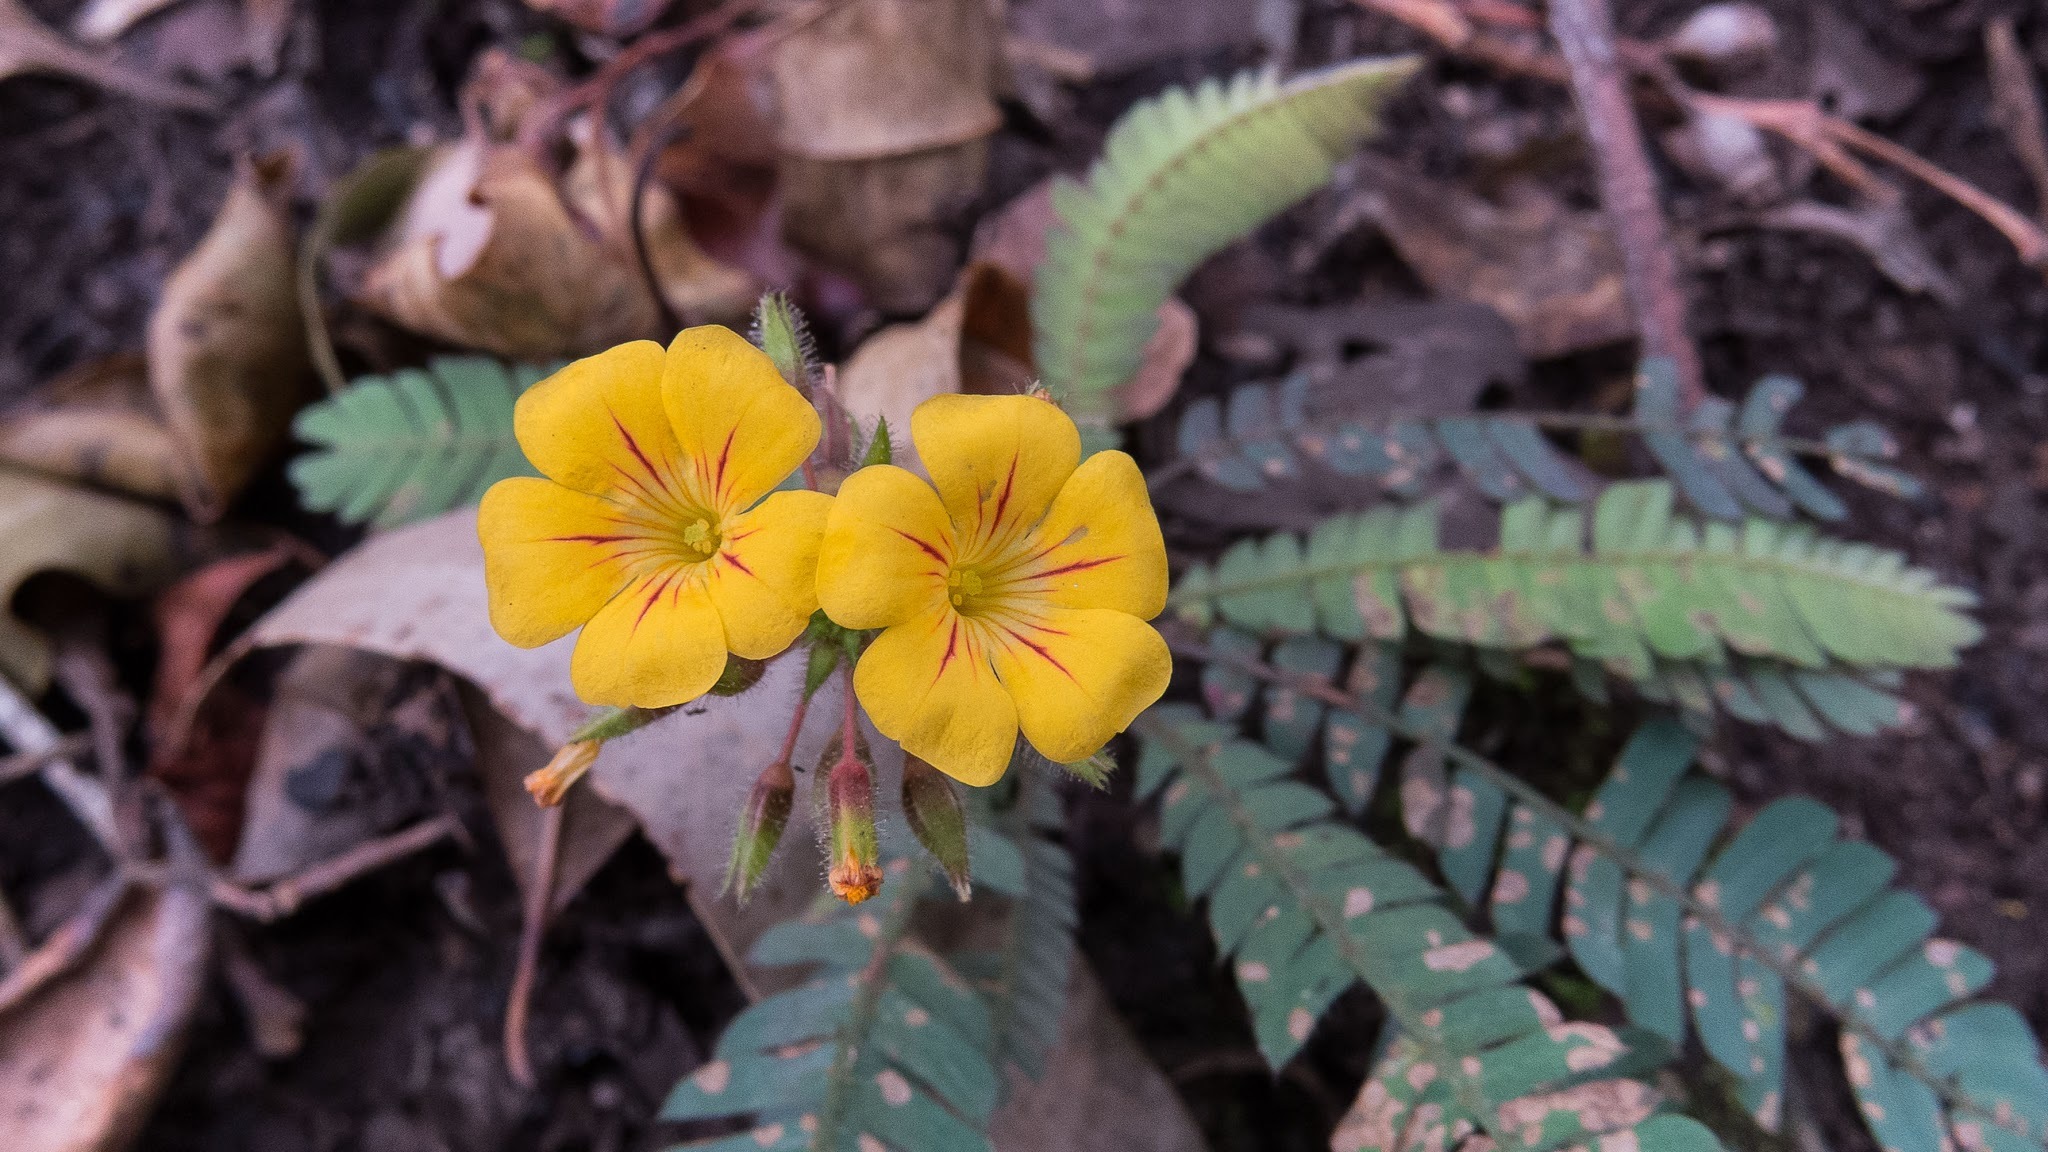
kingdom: Plantae
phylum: Tracheophyta
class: Magnoliopsida
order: Oxalidales
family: Oxalidaceae
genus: Biophytum
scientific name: Biophytum sensitivum
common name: Lifeplant
